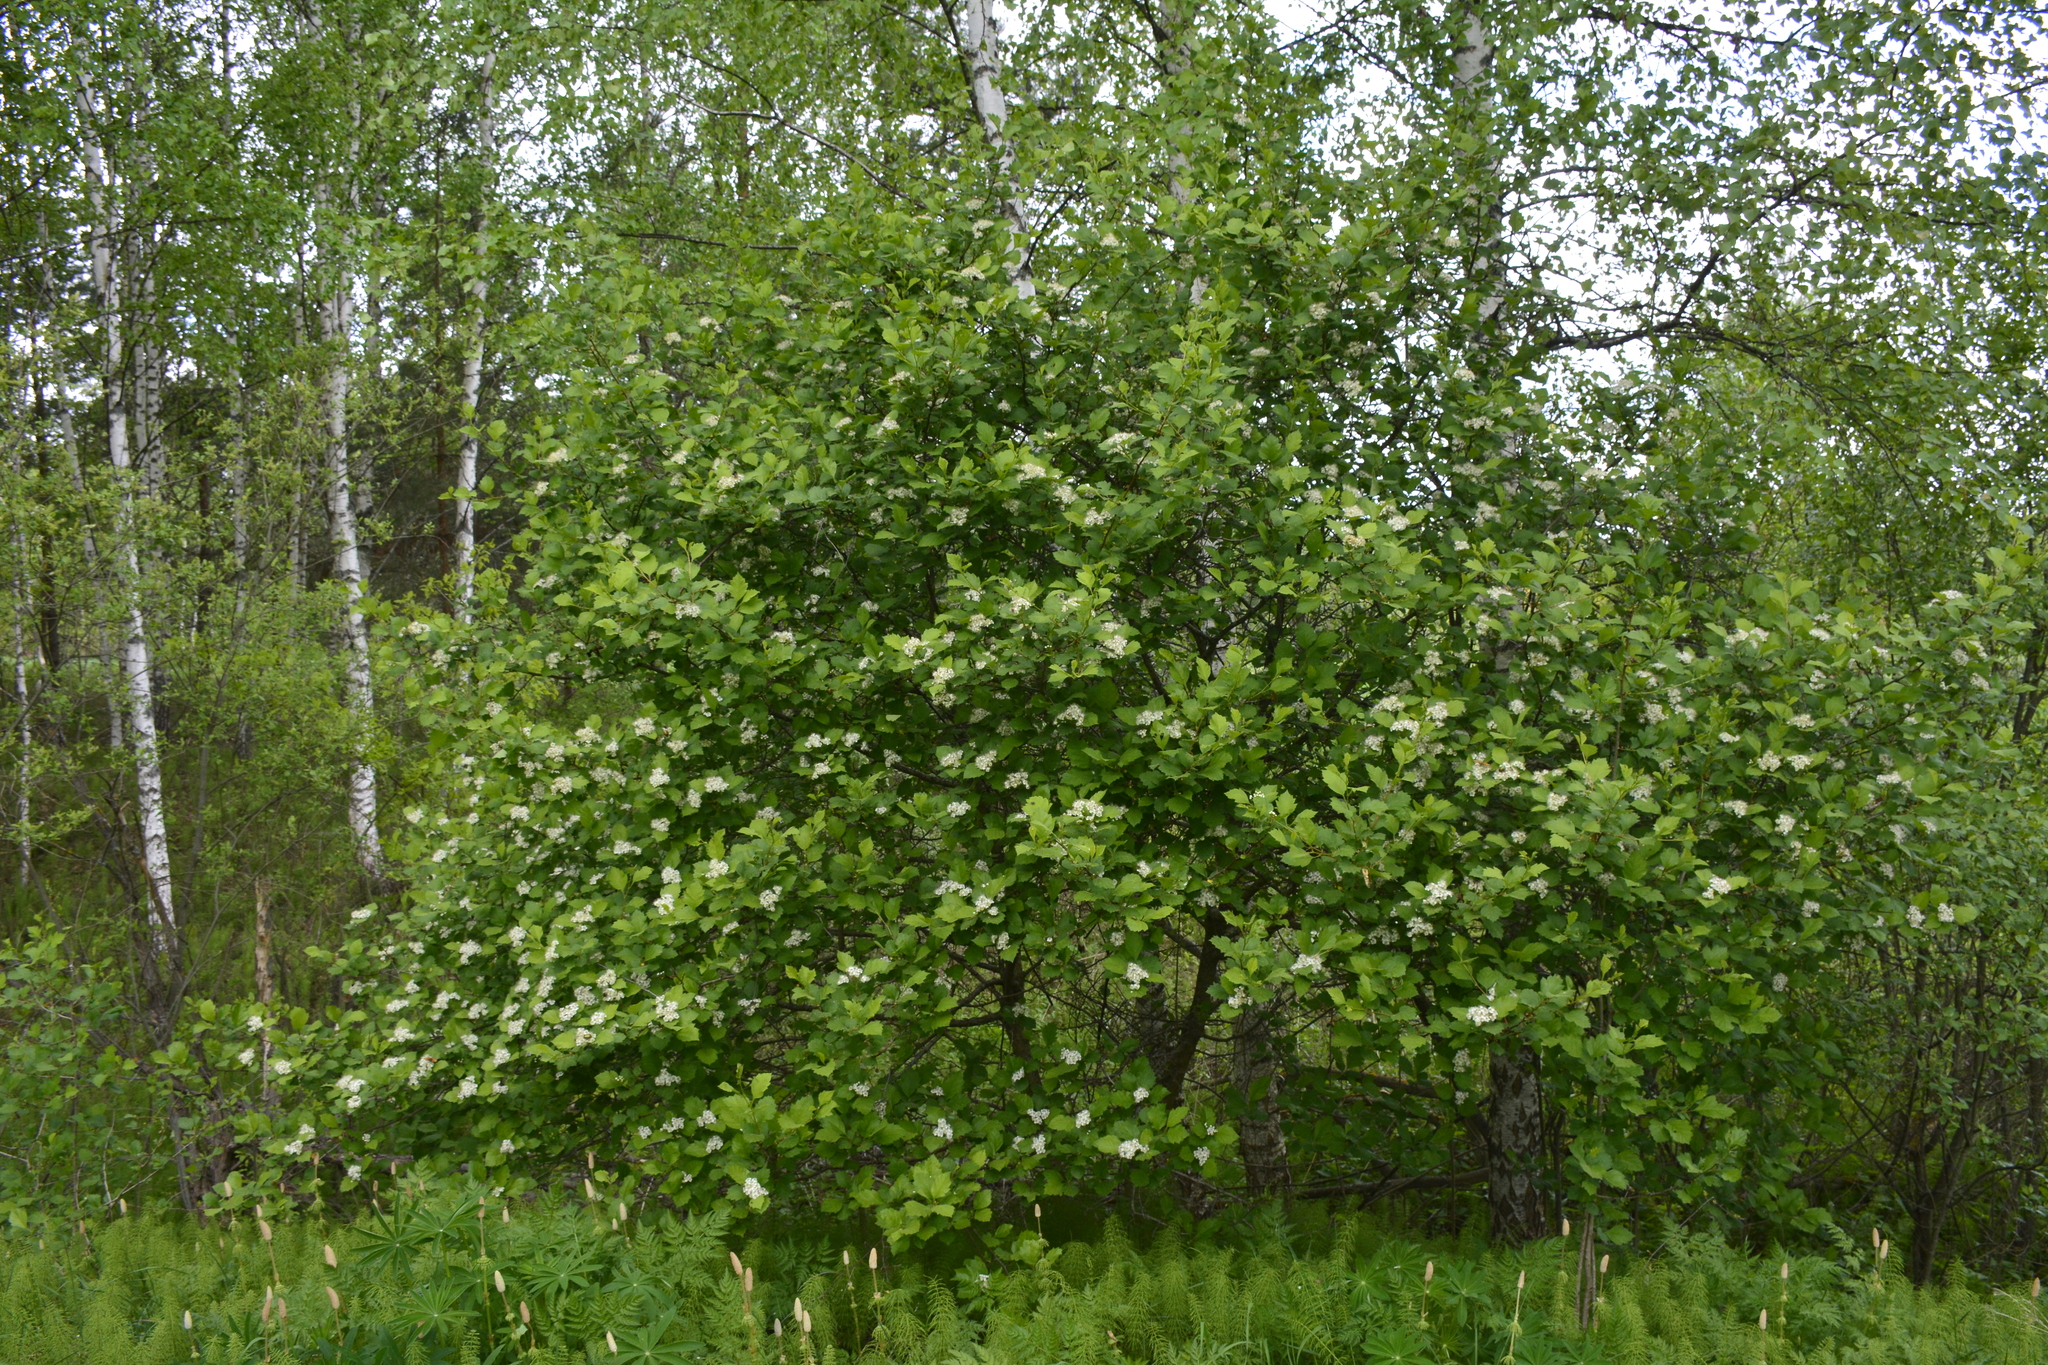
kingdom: Plantae
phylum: Tracheophyta
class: Magnoliopsida
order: Rosales
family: Rosaceae
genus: Crataegus
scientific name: Crataegus sanguinea
